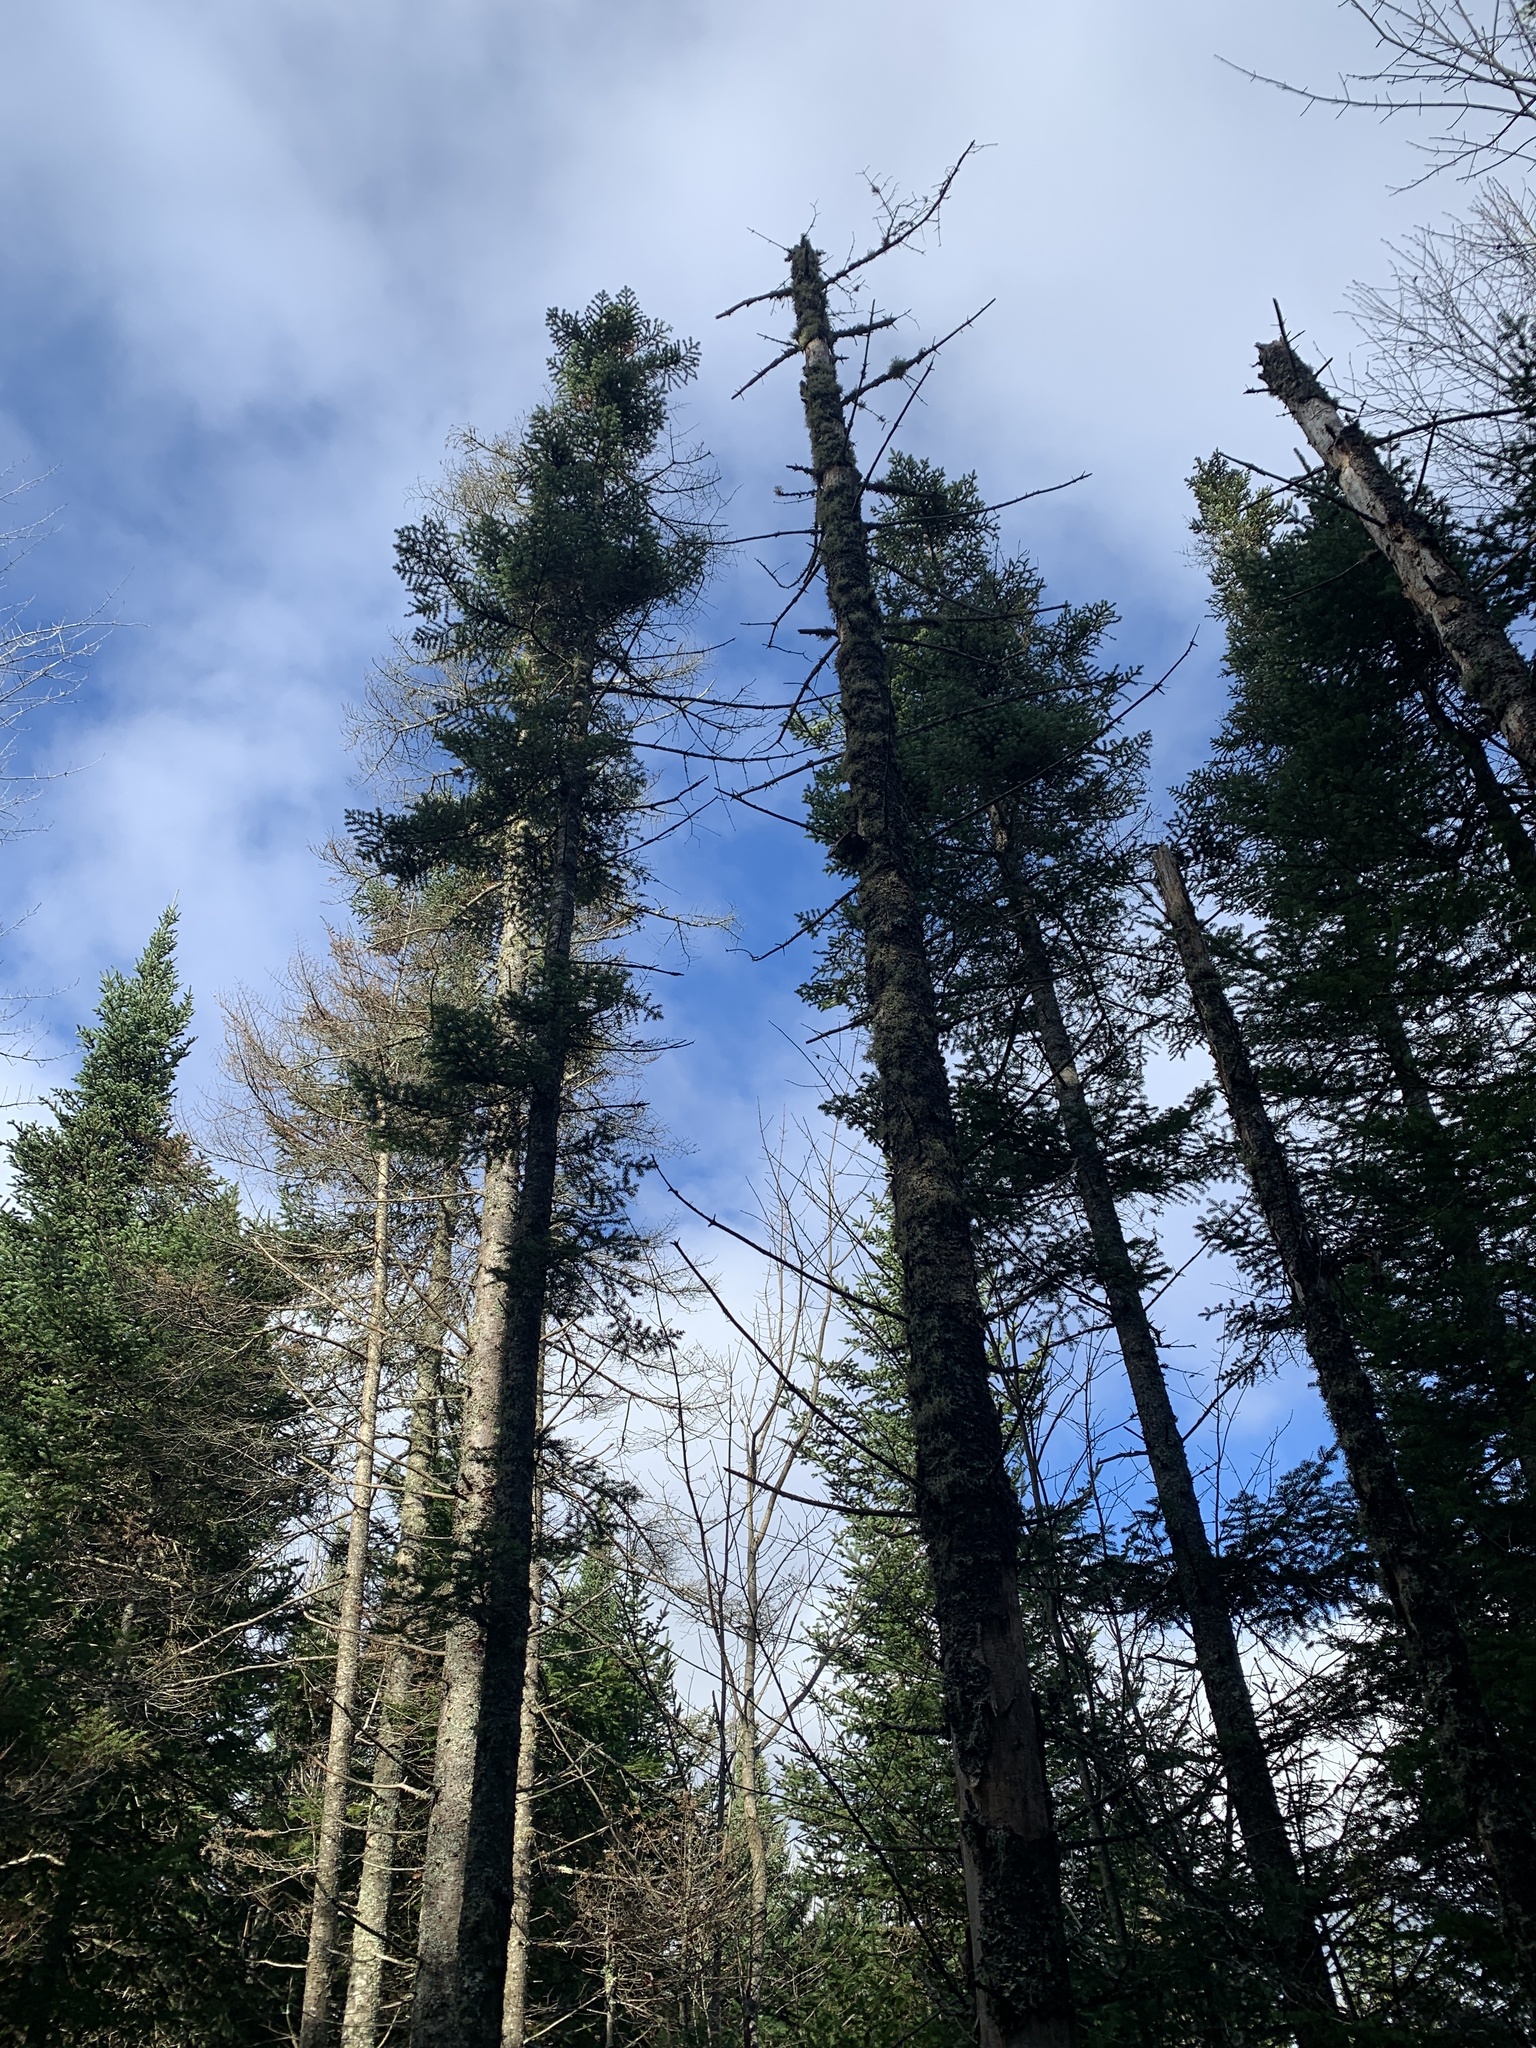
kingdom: Plantae
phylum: Tracheophyta
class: Pinopsida
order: Pinales
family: Pinaceae
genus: Abies
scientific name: Abies balsamea
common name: Balsam fir
